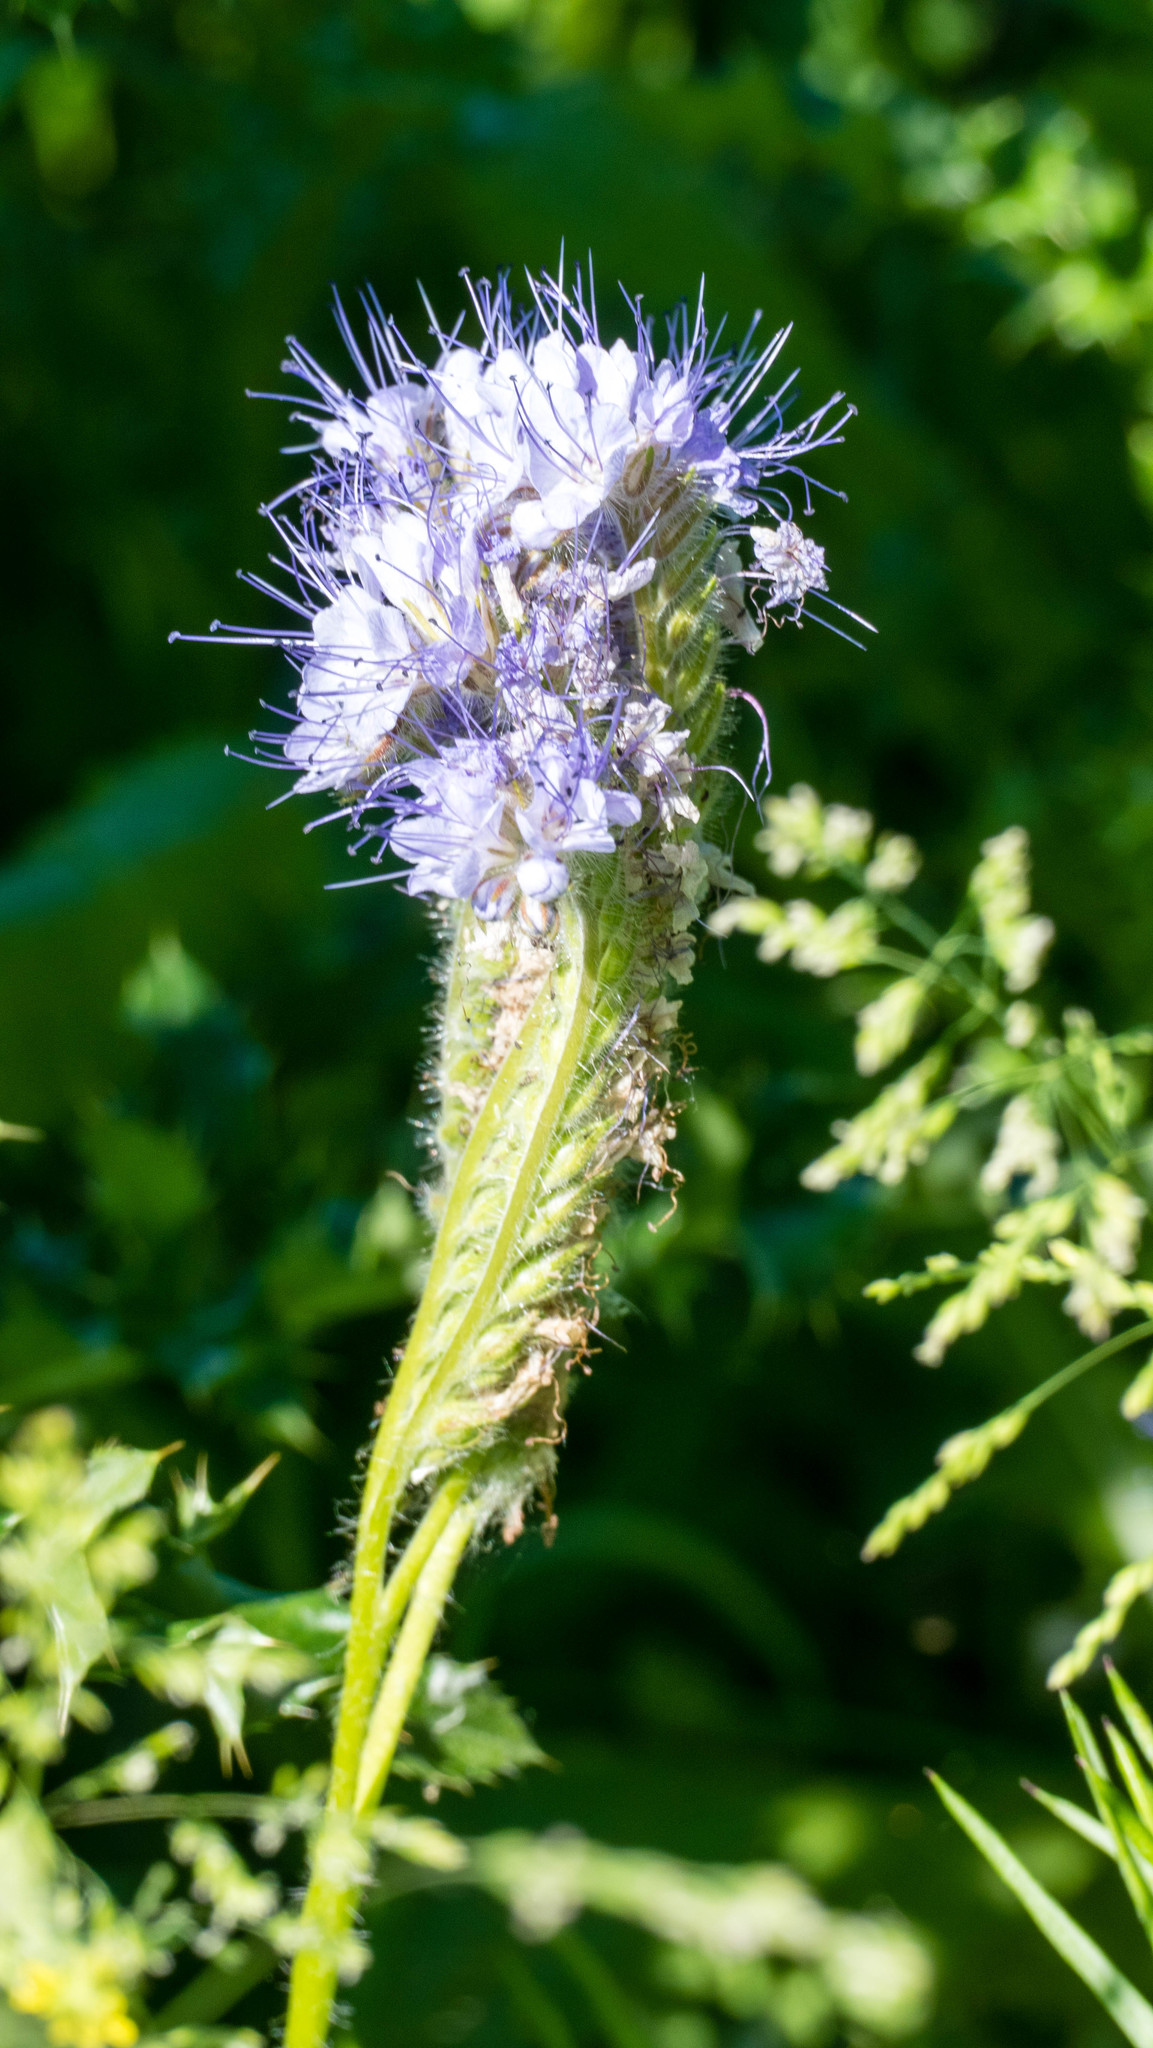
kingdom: Plantae
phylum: Tracheophyta
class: Magnoliopsida
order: Boraginales
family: Hydrophyllaceae
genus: Phacelia
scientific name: Phacelia tanacetifolia
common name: Phacelia
